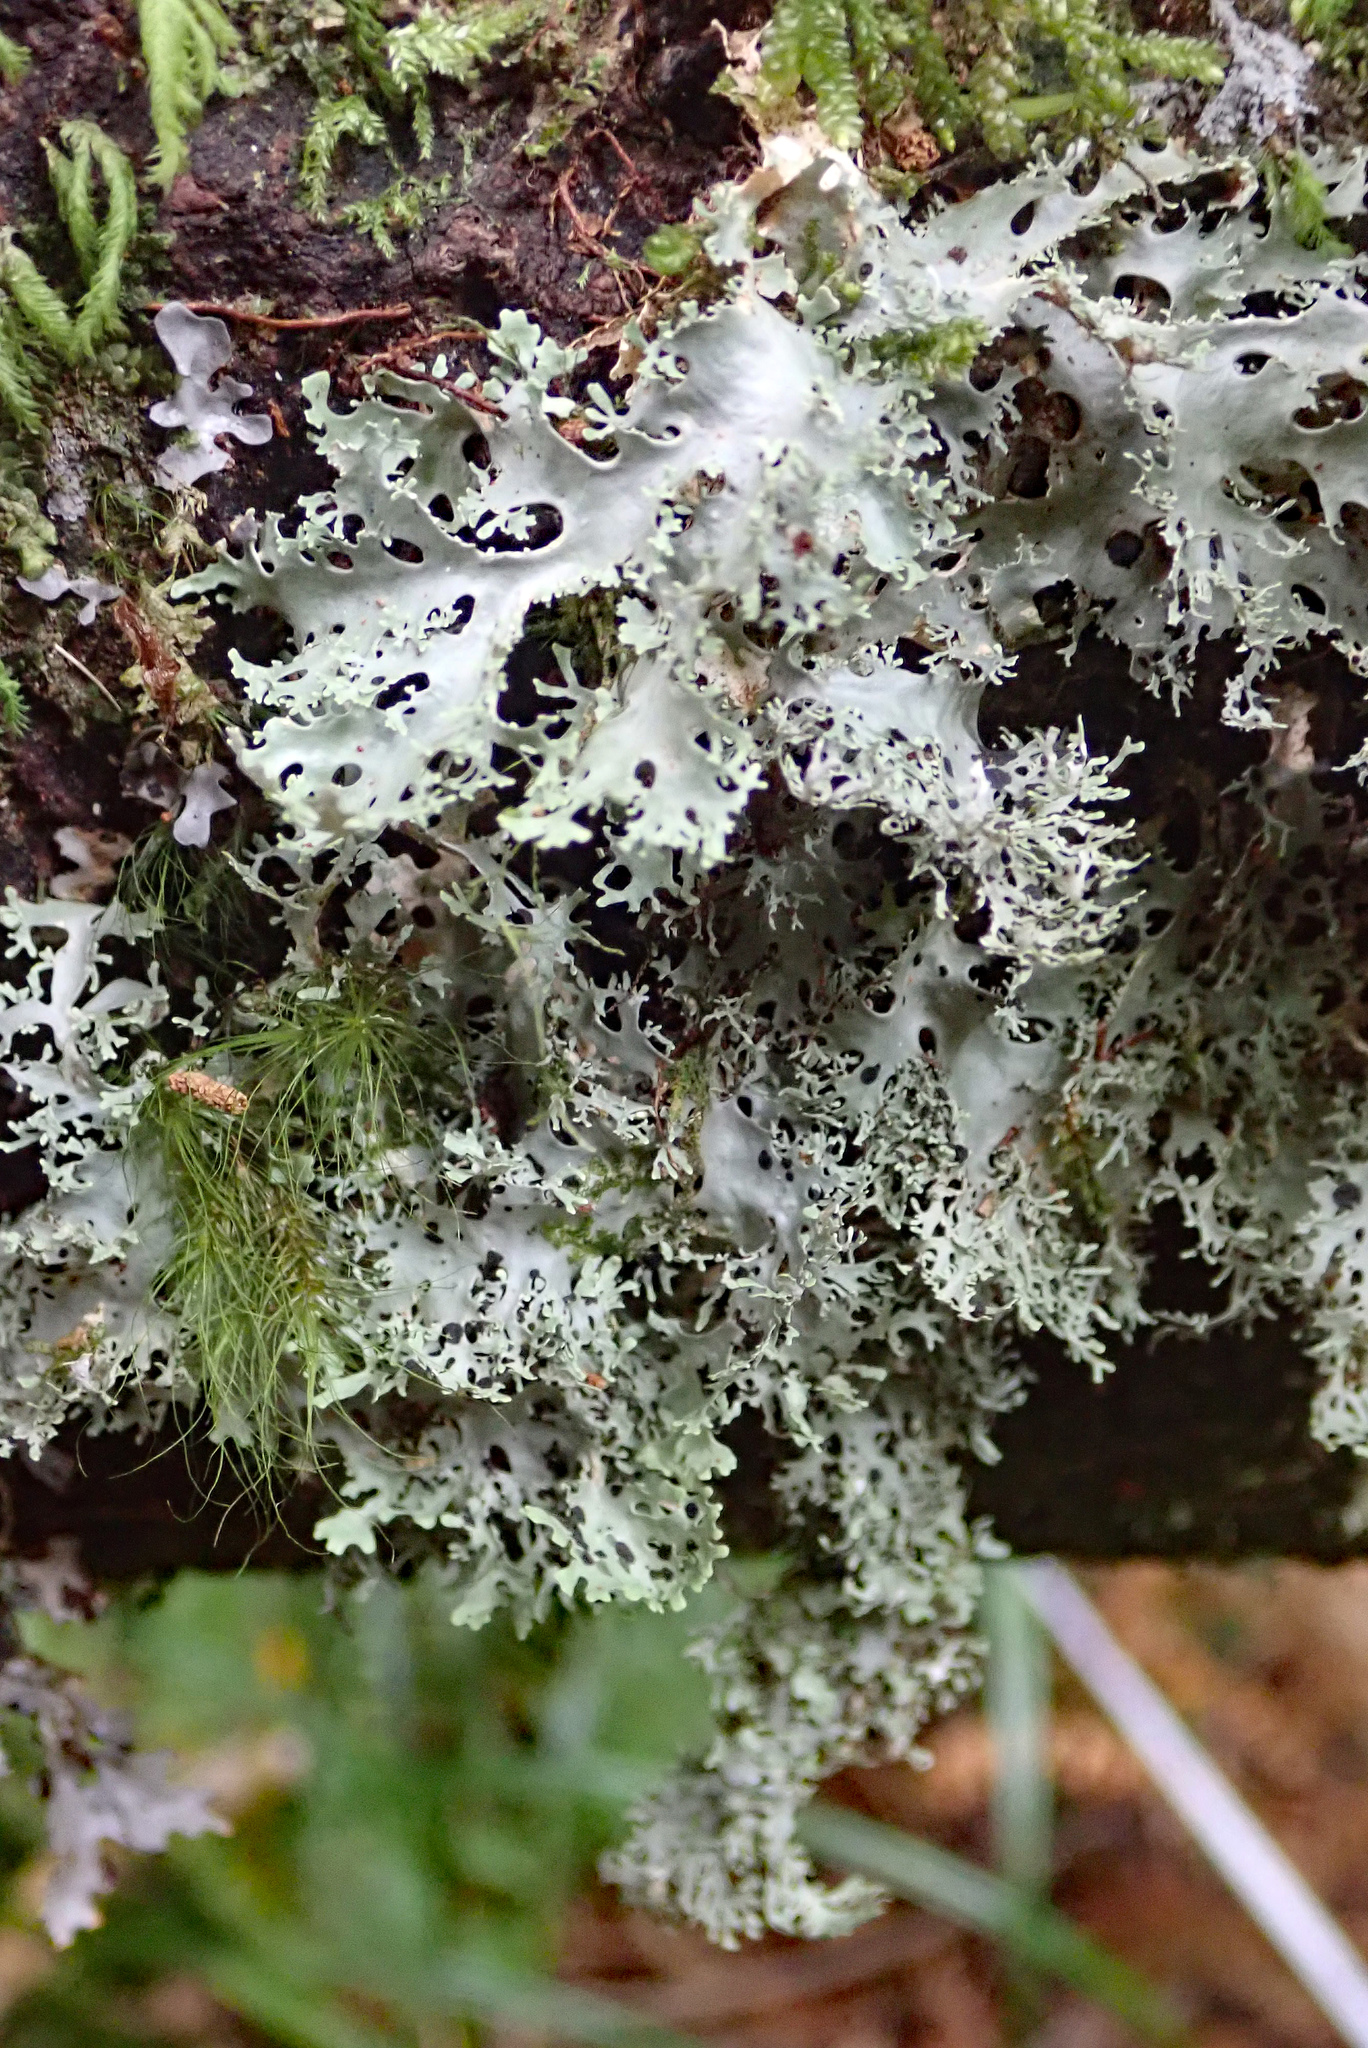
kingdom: Fungi
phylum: Ascomycota
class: Lecanoromycetes
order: Peltigerales
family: Lobariaceae
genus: Pseudocyphellaria
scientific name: Pseudocyphellaria multifida
